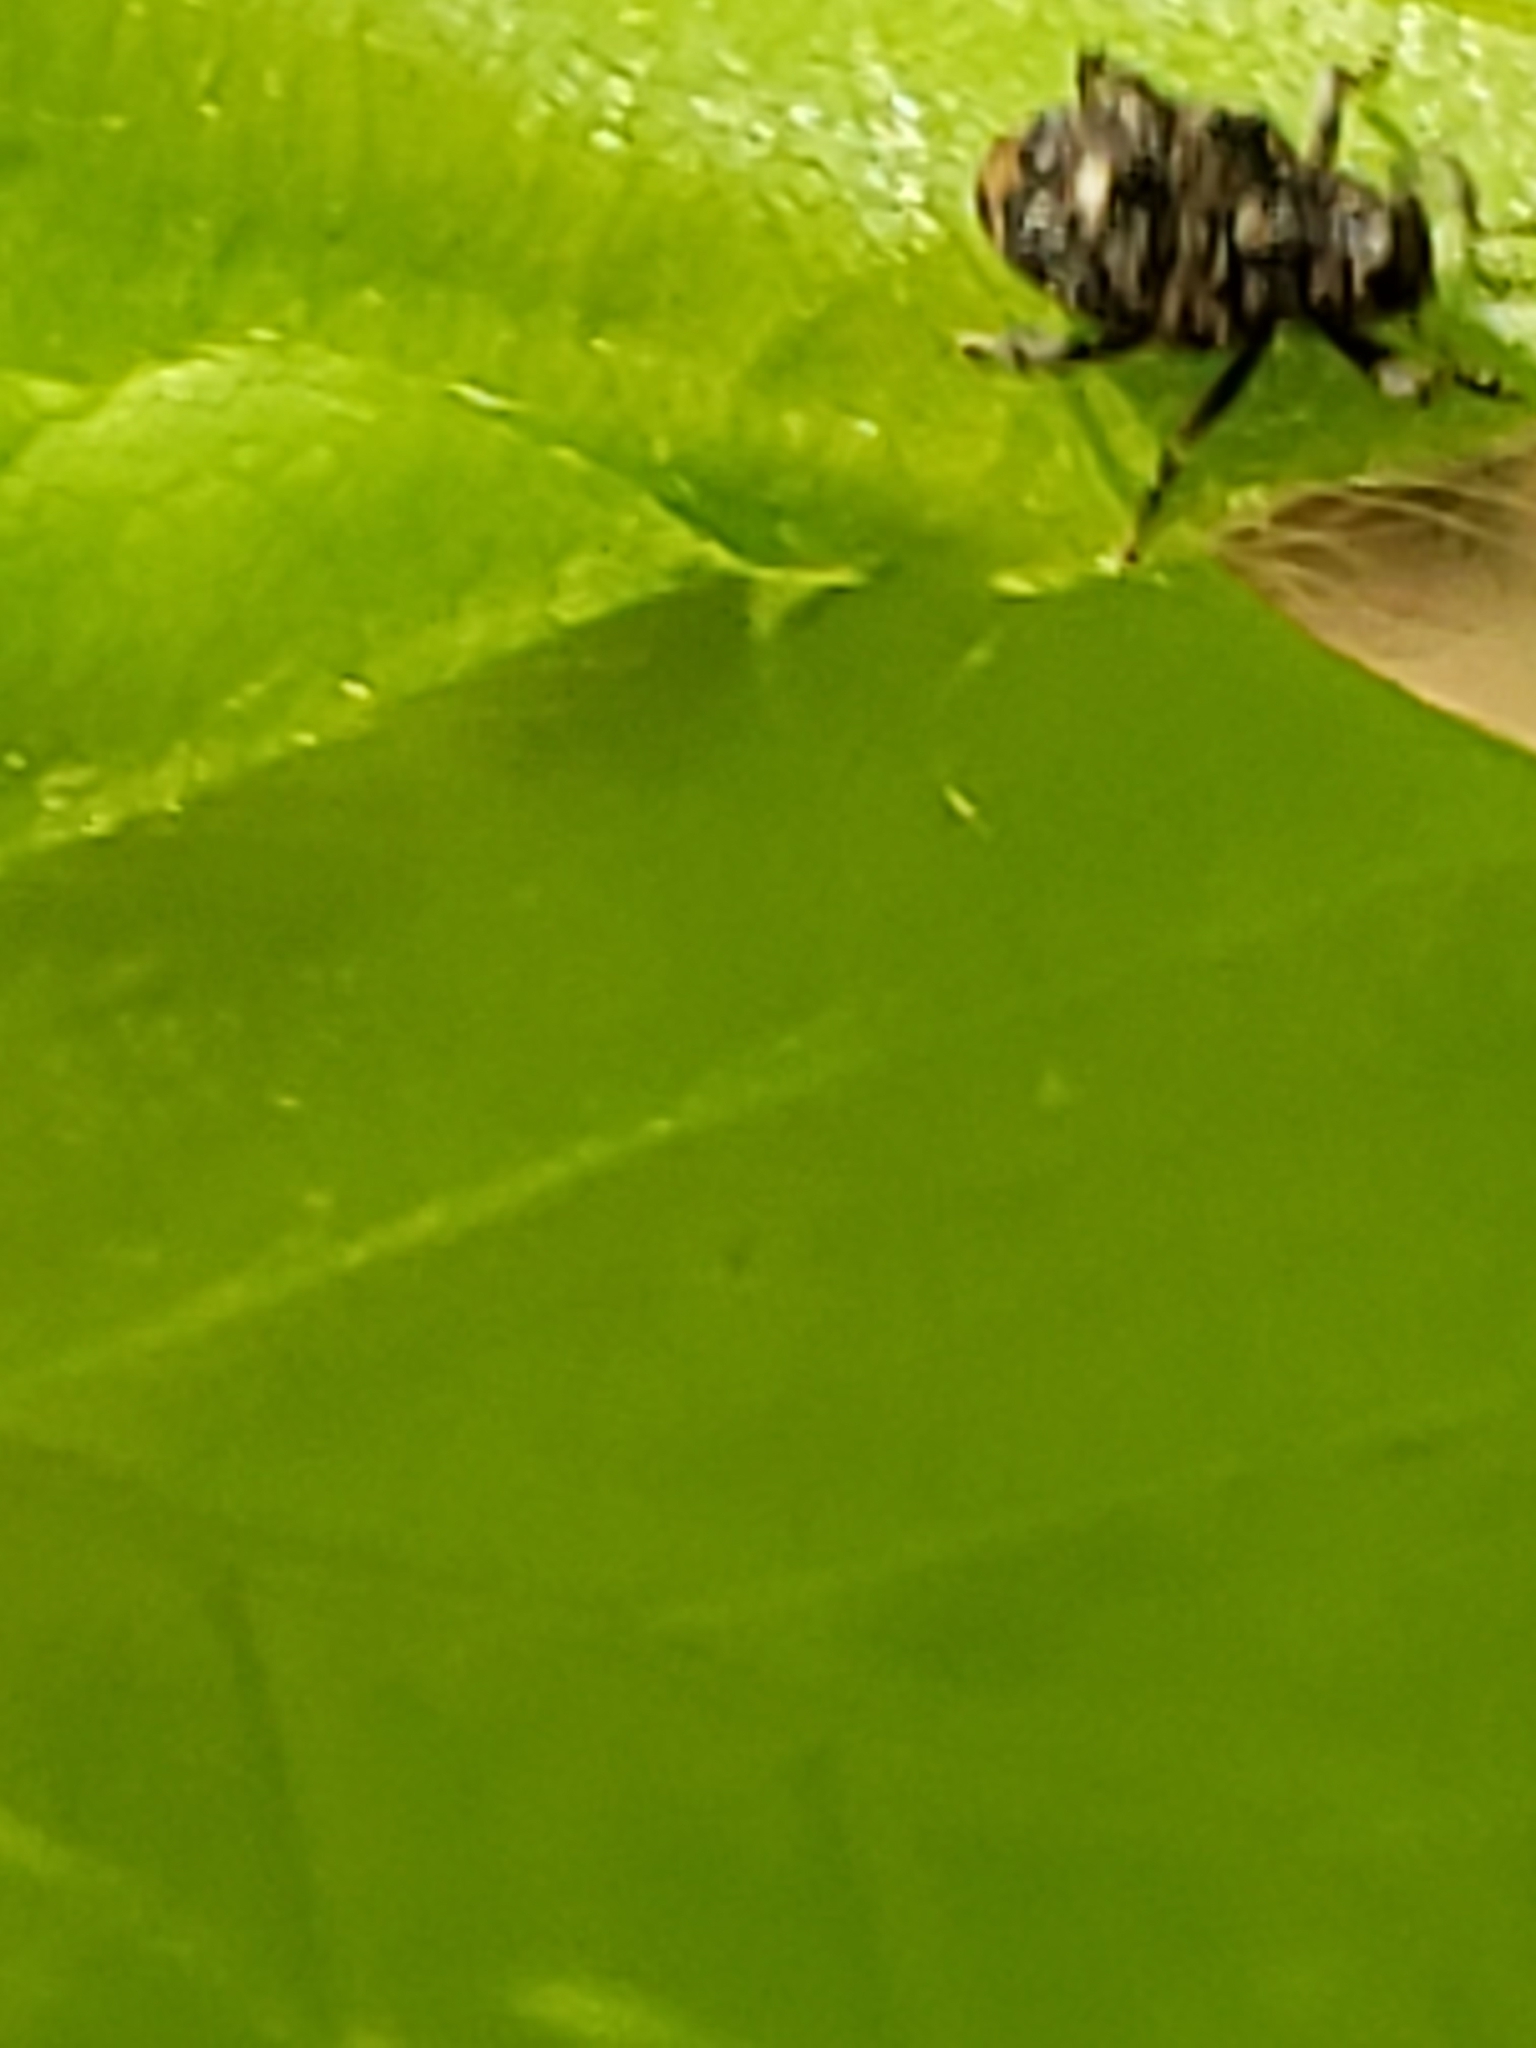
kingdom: Animalia
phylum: Arthropoda
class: Insecta
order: Coleoptera
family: Curculionidae
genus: Lechriops
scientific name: Lechriops oculatus
